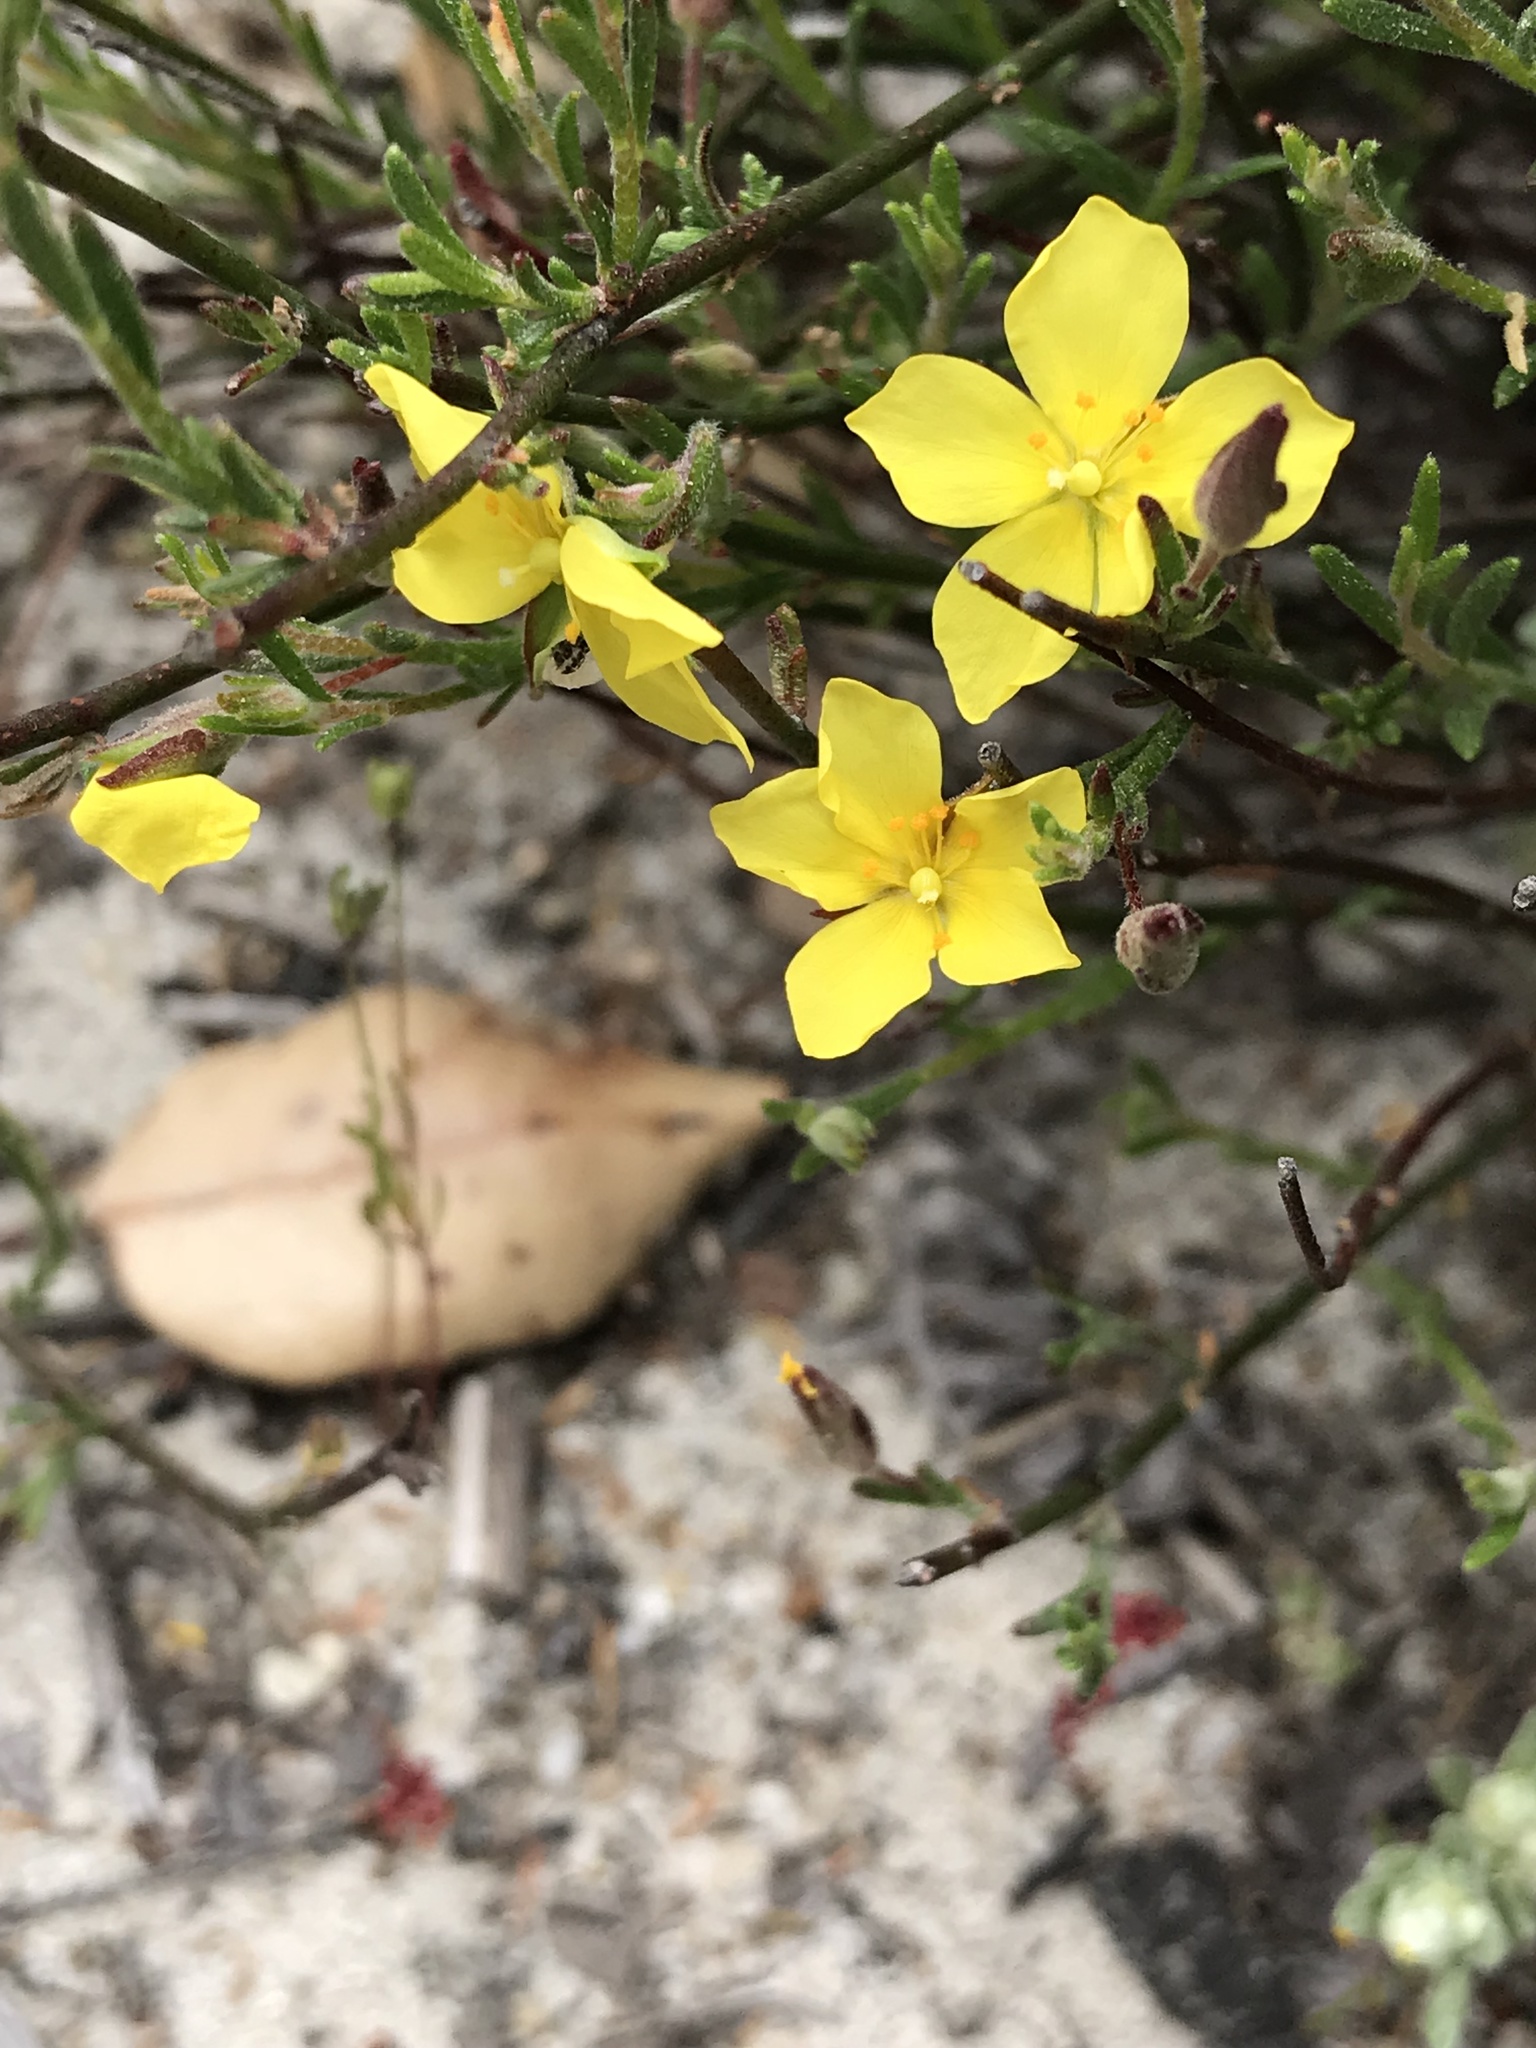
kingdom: Plantae
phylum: Tracheophyta
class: Magnoliopsida
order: Malvales
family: Cistaceae
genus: Crocanthemum
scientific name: Crocanthemum scoparium
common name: Broom-rose
